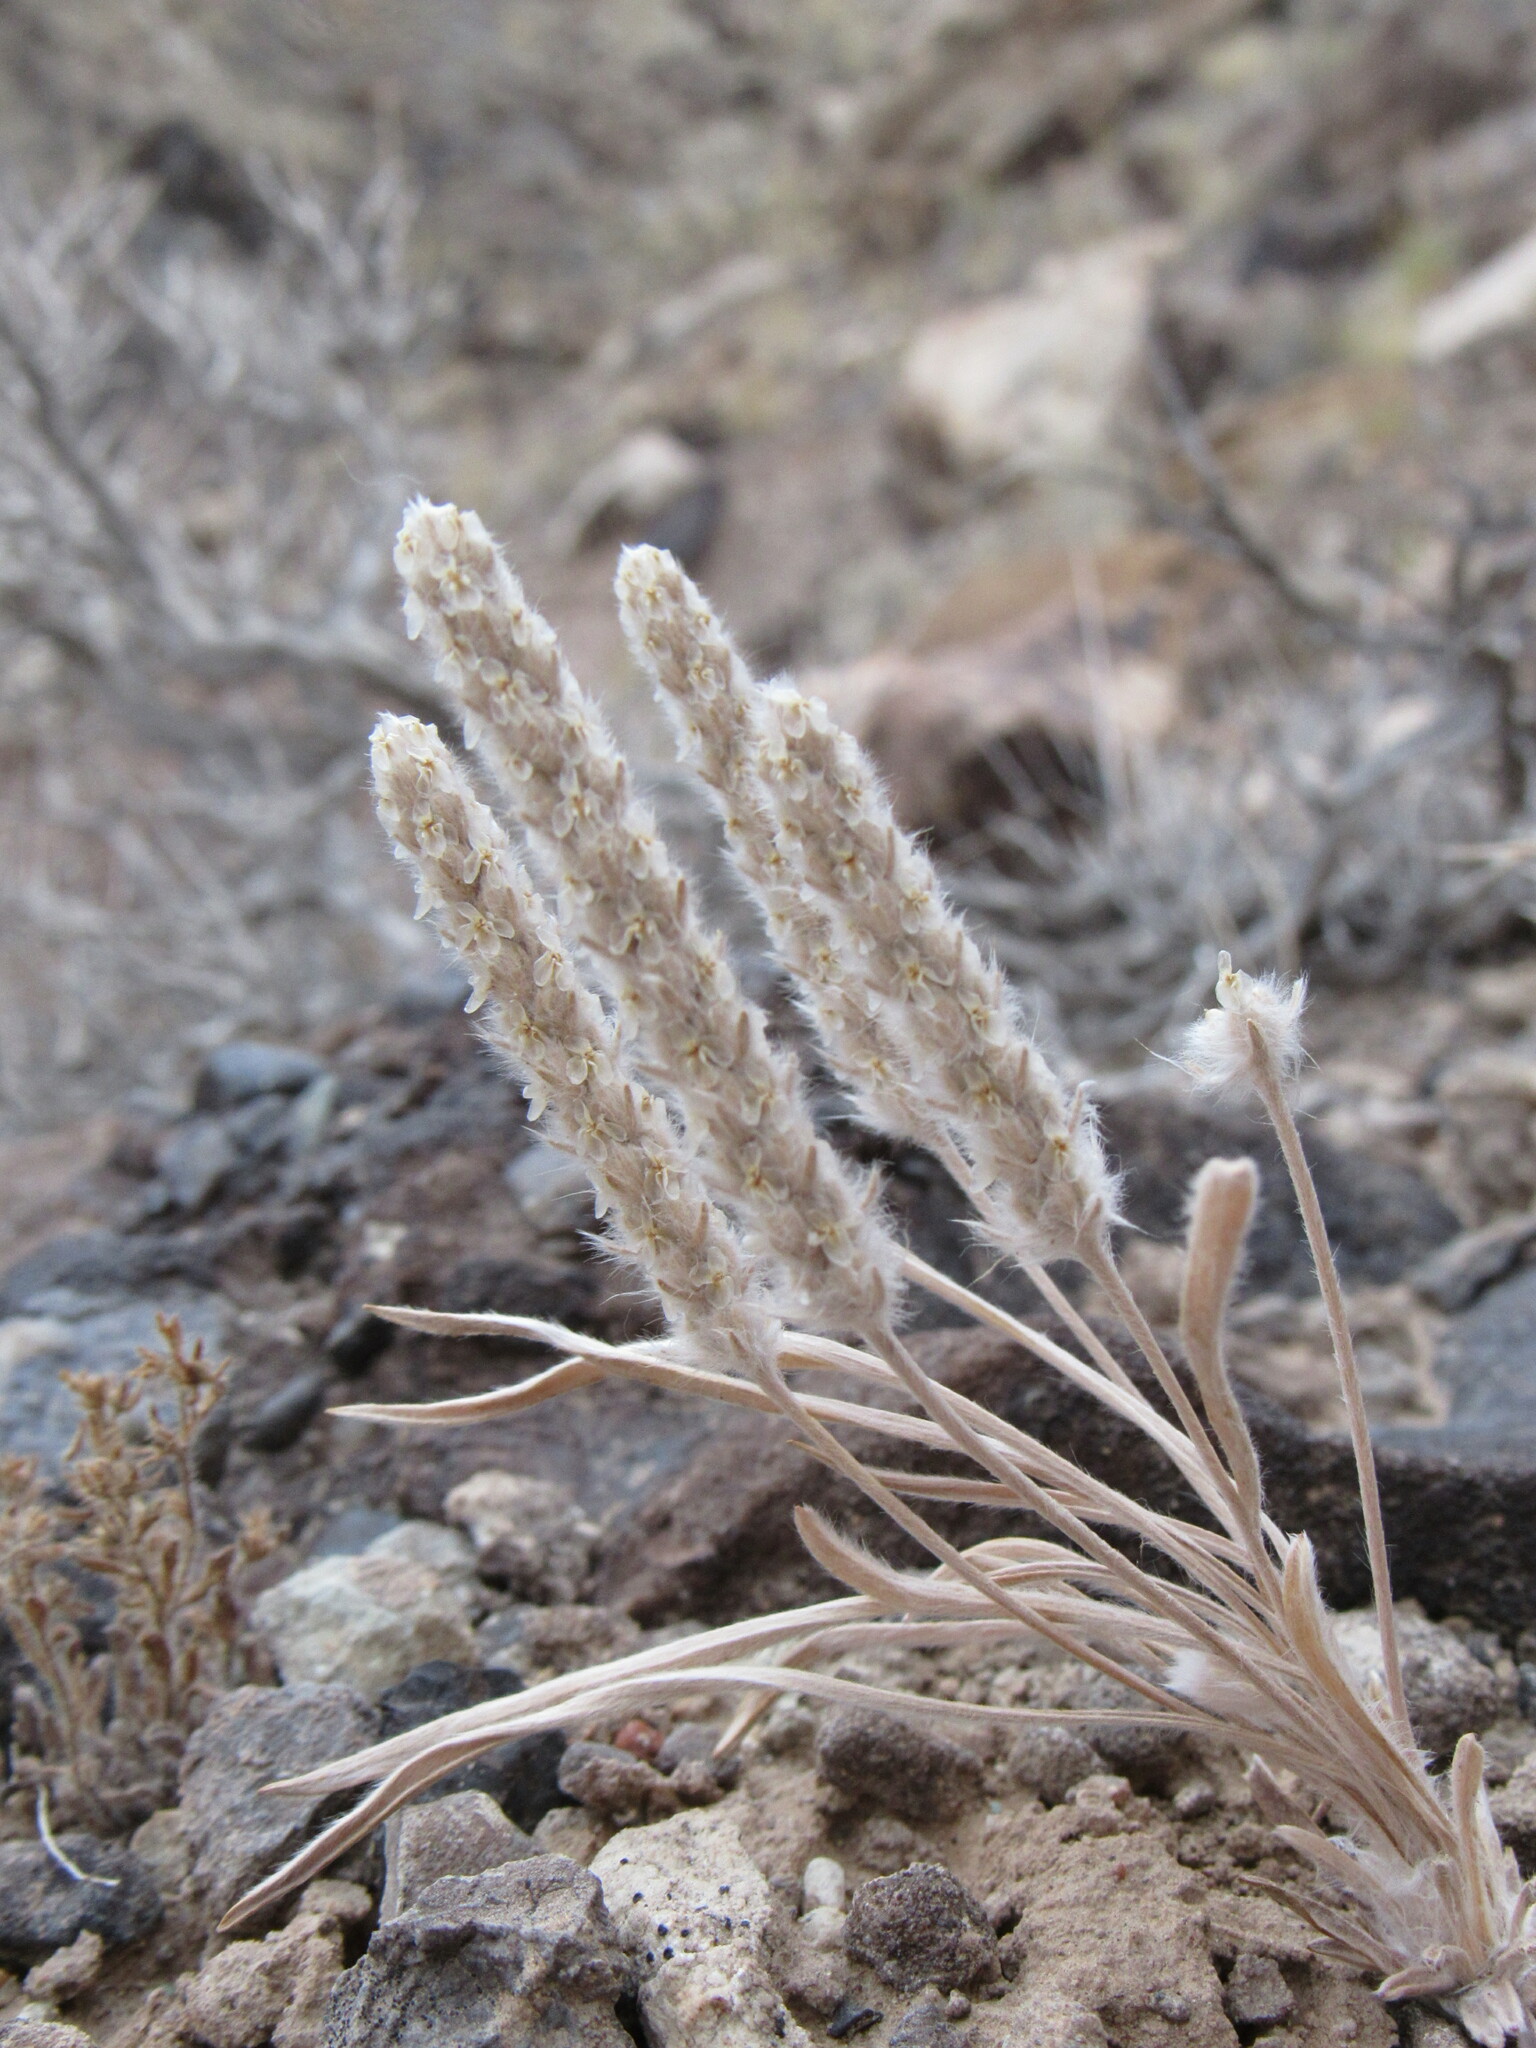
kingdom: Plantae
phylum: Tracheophyta
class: Magnoliopsida
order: Lamiales
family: Plantaginaceae
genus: Plantago
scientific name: Plantago patagonica
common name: Patagonia indian-wheat
